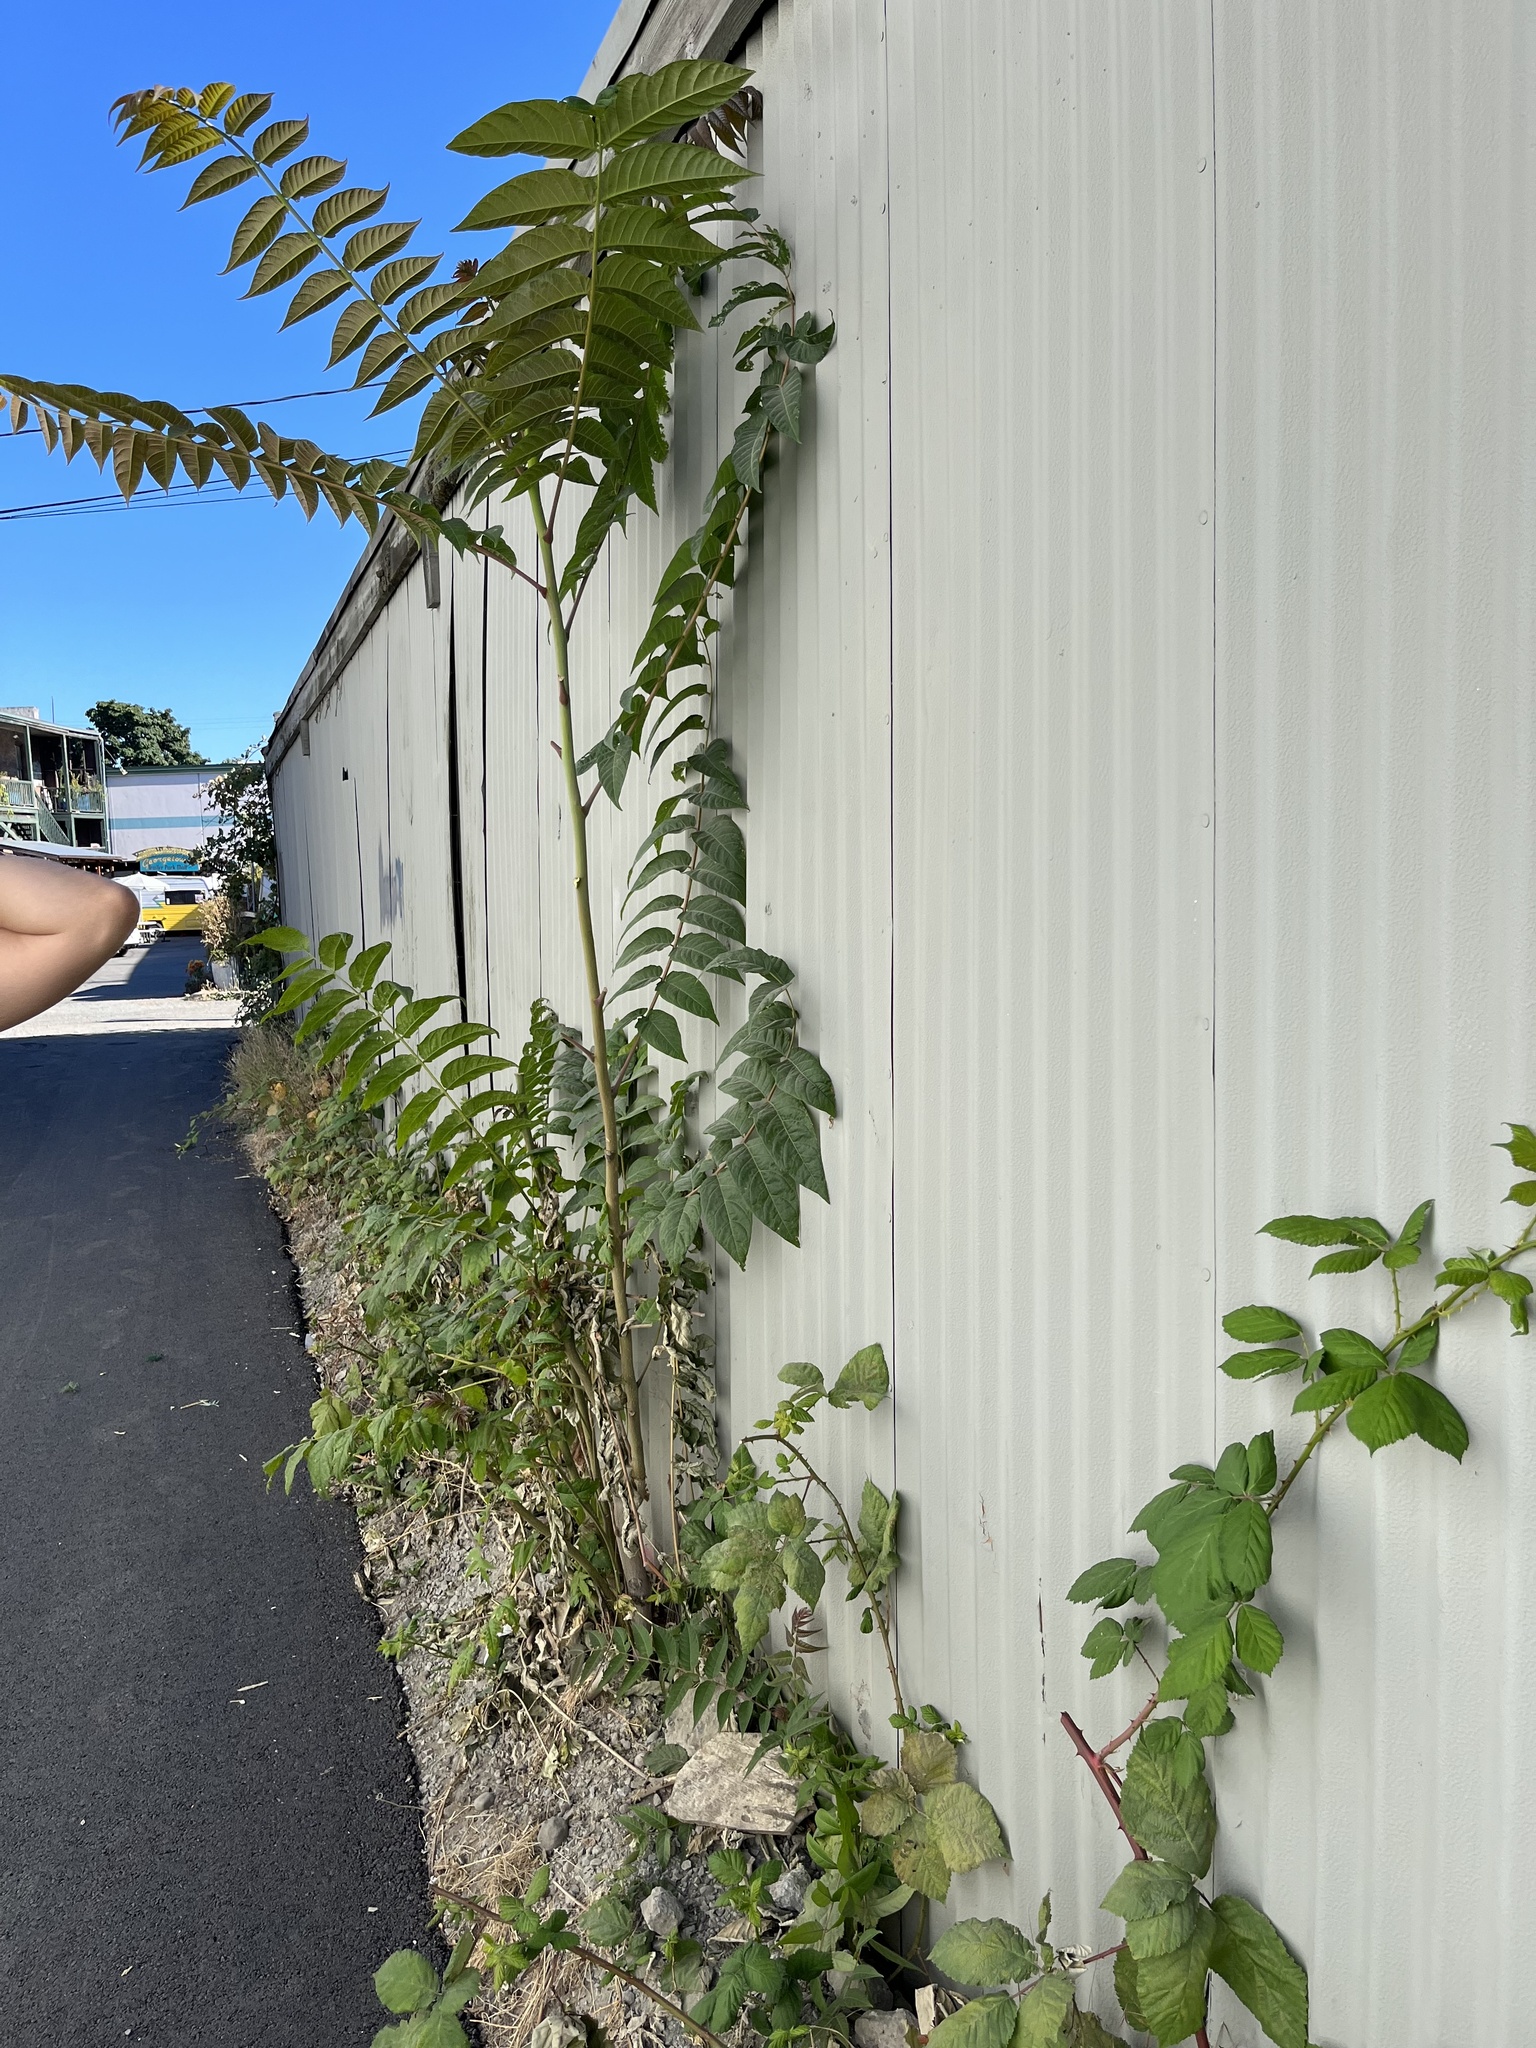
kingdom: Plantae
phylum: Tracheophyta
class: Magnoliopsida
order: Sapindales
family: Simaroubaceae
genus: Ailanthus
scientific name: Ailanthus altissima
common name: Tree-of-heaven
